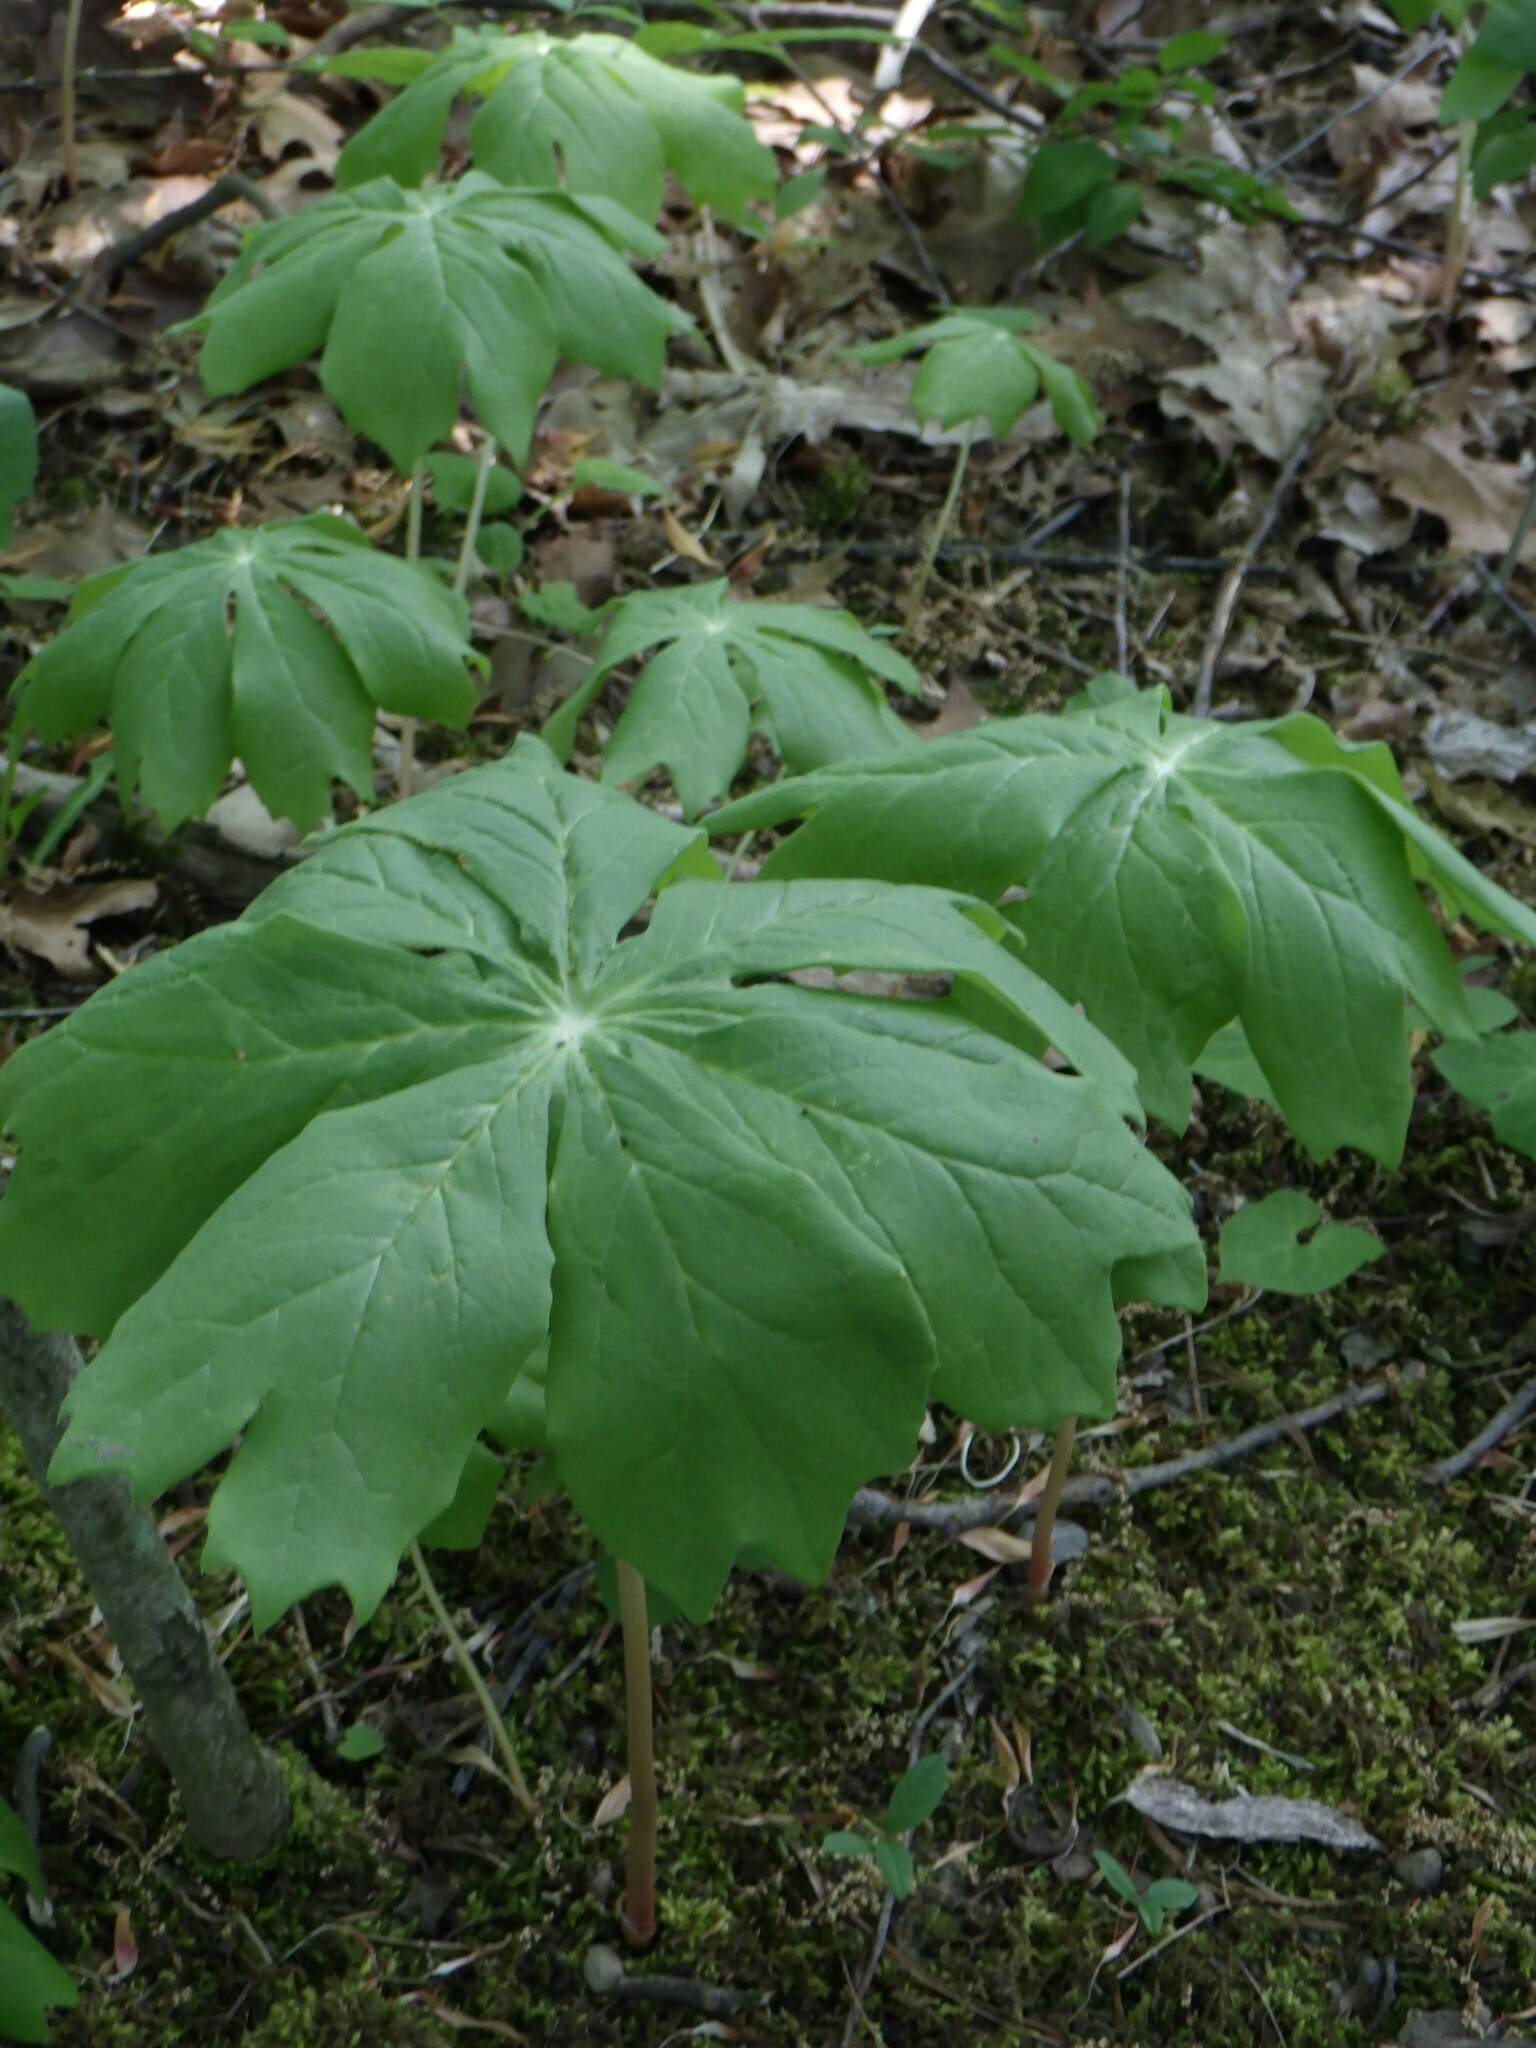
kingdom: Plantae
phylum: Tracheophyta
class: Magnoliopsida
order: Ranunculales
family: Berberidaceae
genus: Podophyllum
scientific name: Podophyllum peltatum
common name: Wild mandrake
